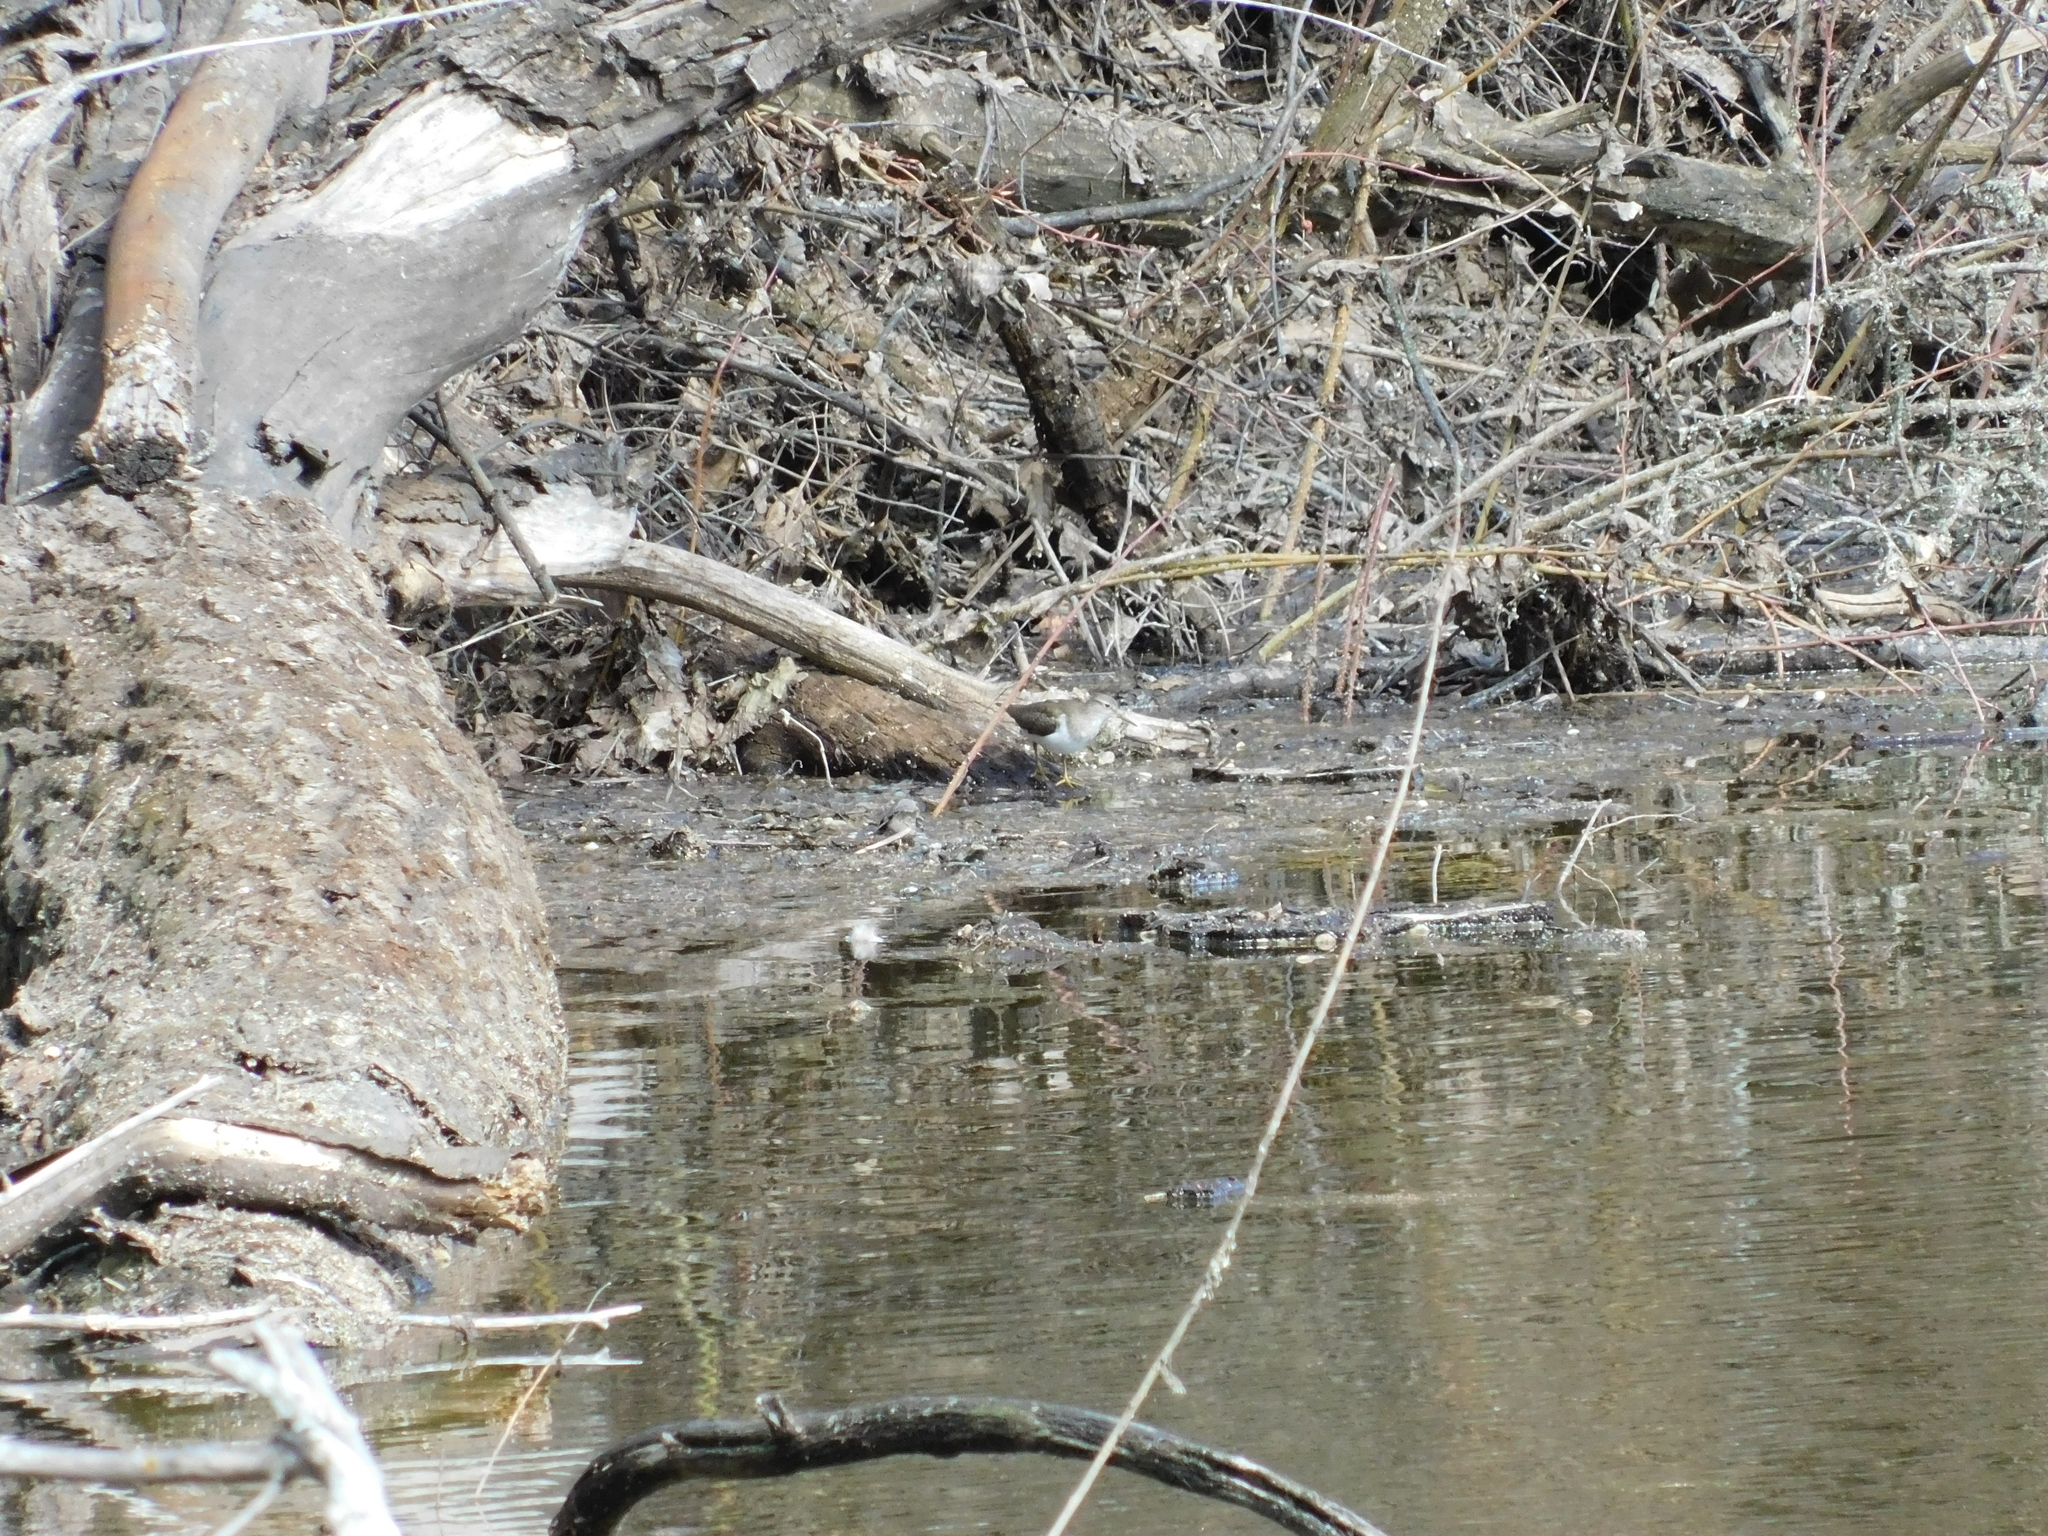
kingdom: Animalia
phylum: Chordata
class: Aves
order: Charadriiformes
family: Scolopacidae
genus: Actitis
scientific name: Actitis hypoleucos
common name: Common sandpiper
